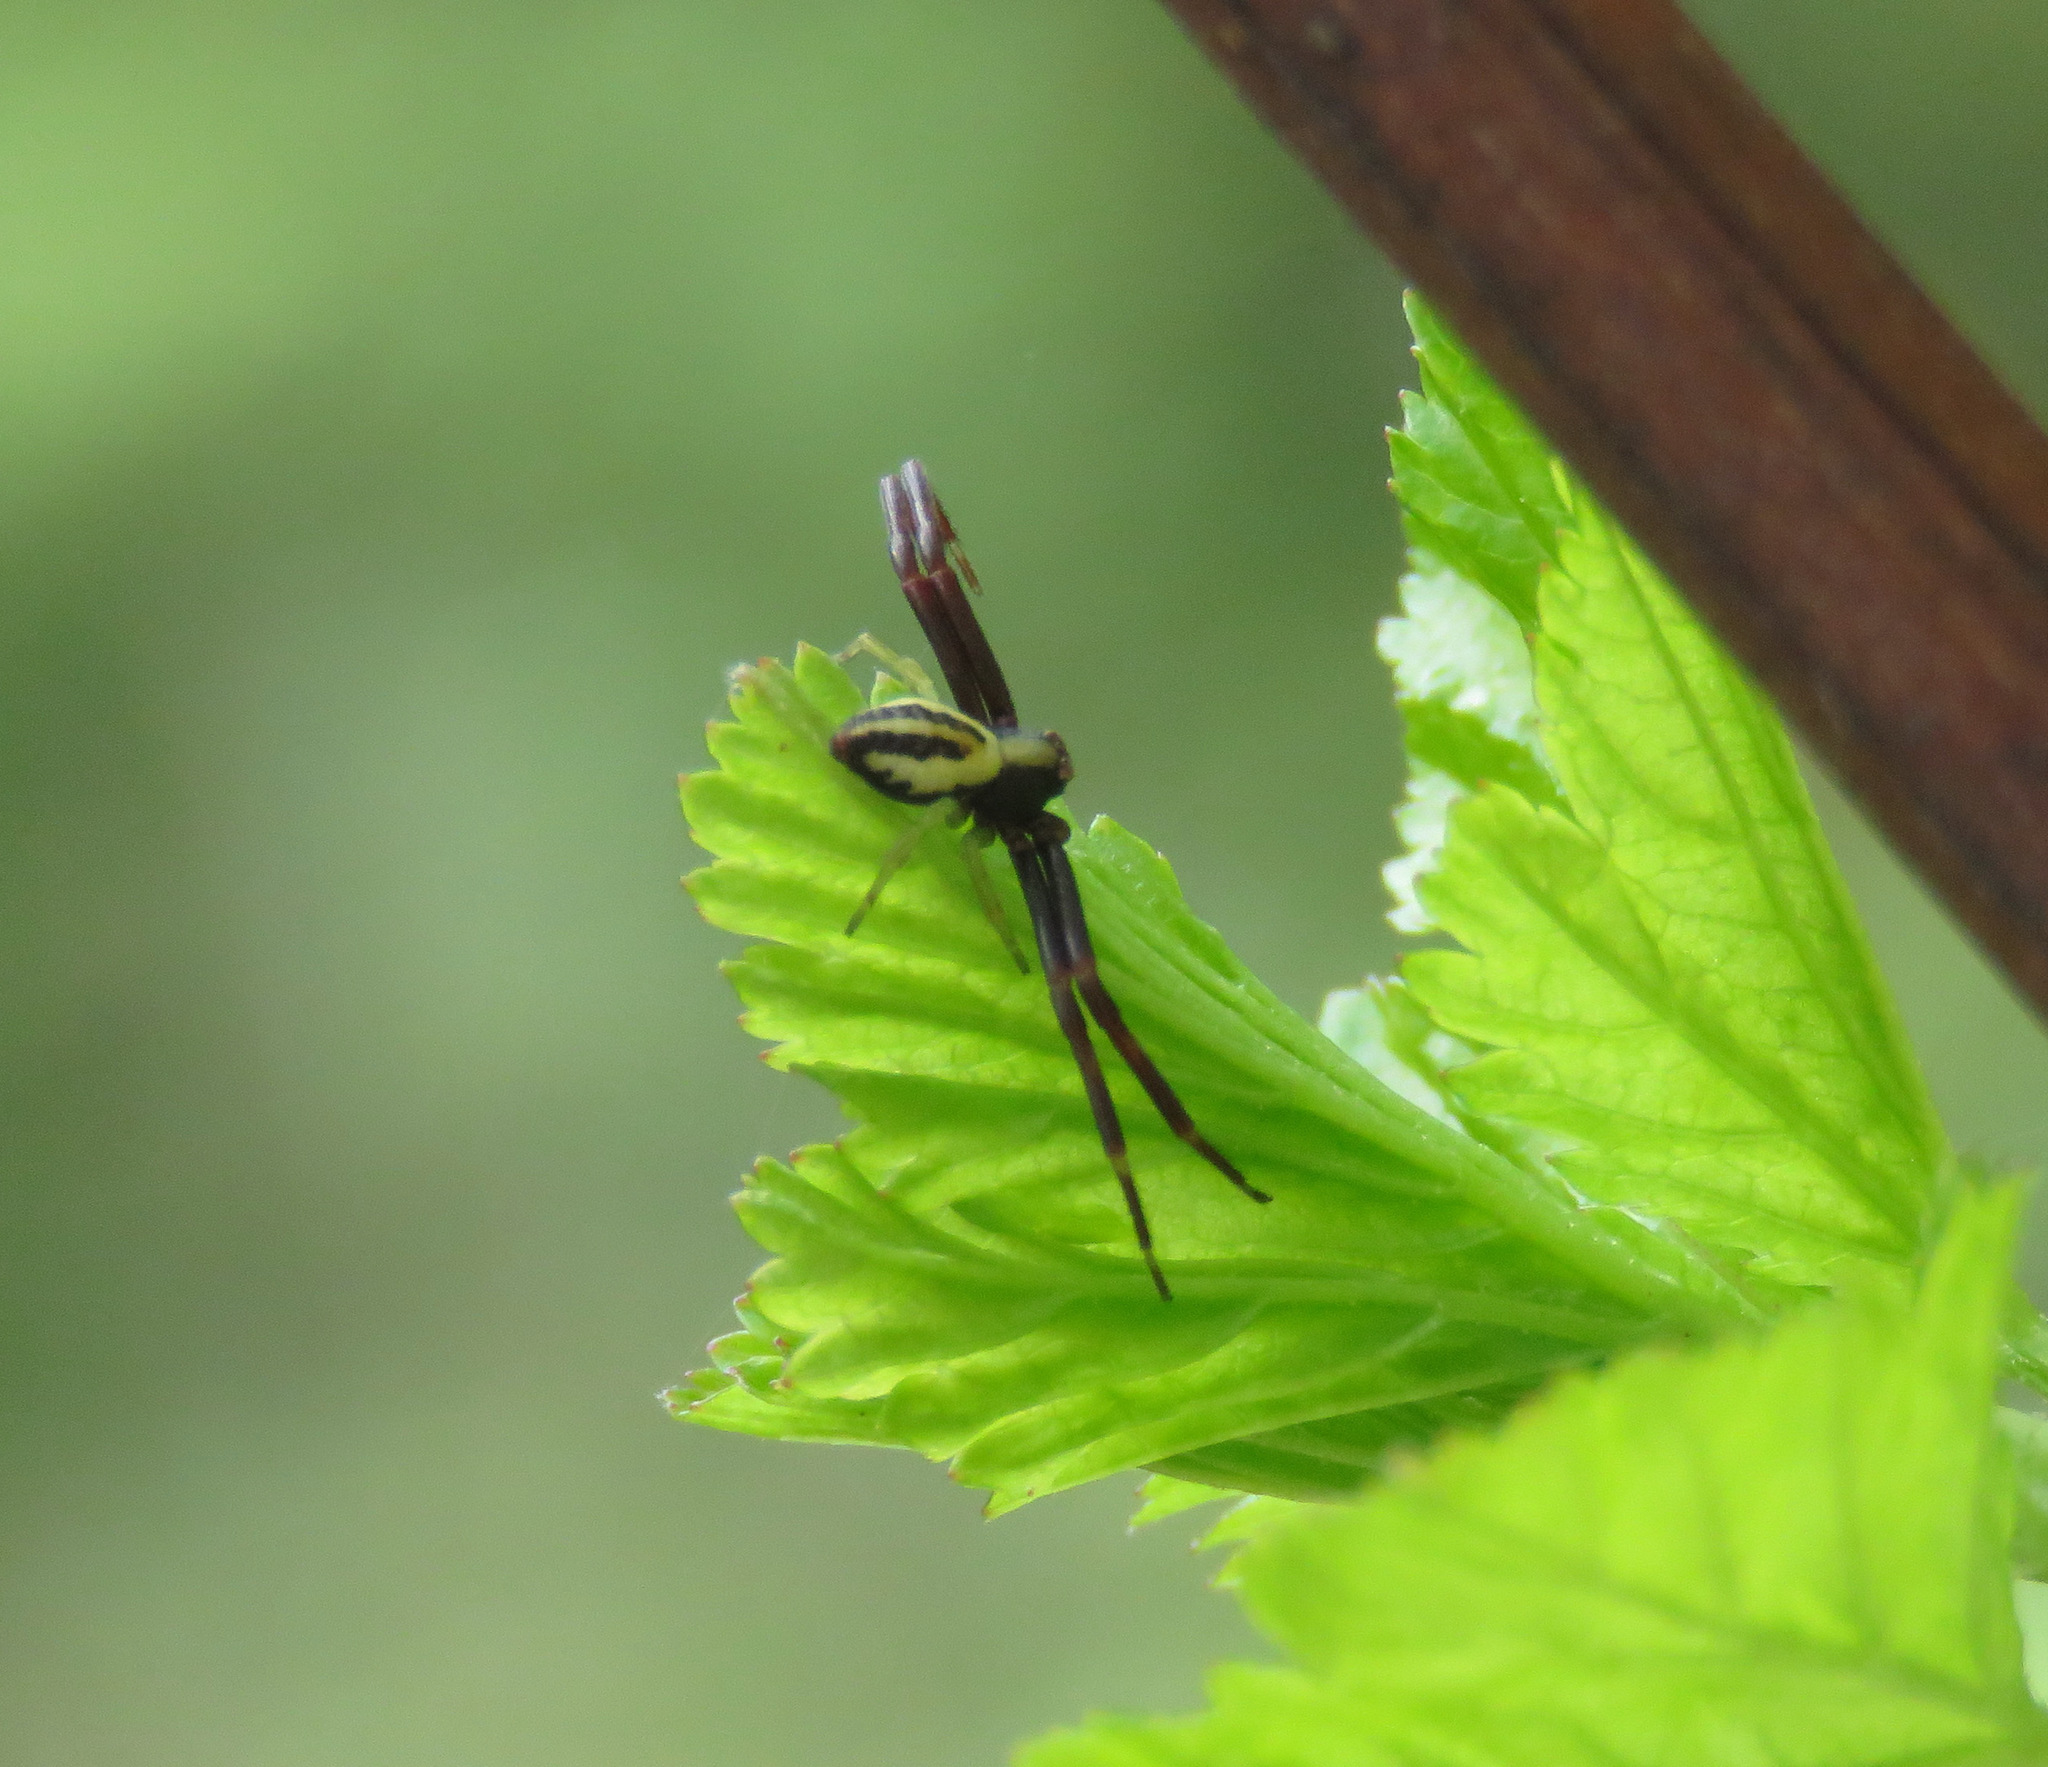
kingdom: Animalia
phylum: Arthropoda
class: Arachnida
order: Araneae
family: Thomisidae
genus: Misumena
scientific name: Misumena vatia
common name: Goldenrod crab spider
